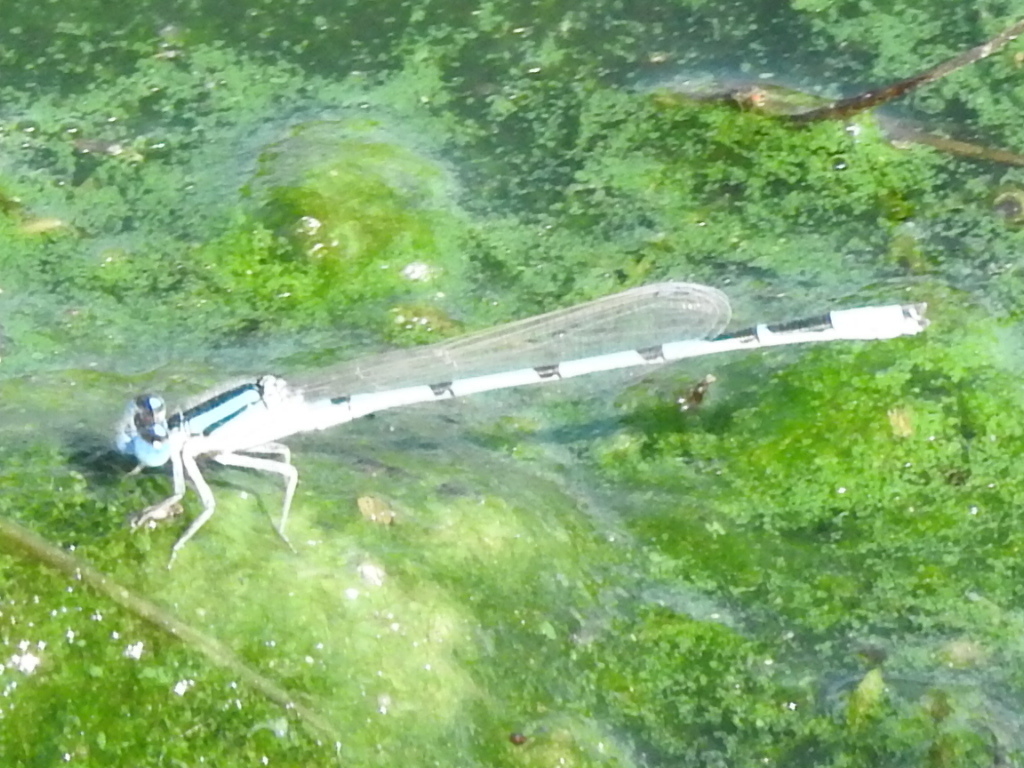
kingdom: Animalia
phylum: Arthropoda
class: Insecta
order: Odonata
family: Coenagrionidae
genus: Enallagma
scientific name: Enallagma civile
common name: Damselfly
